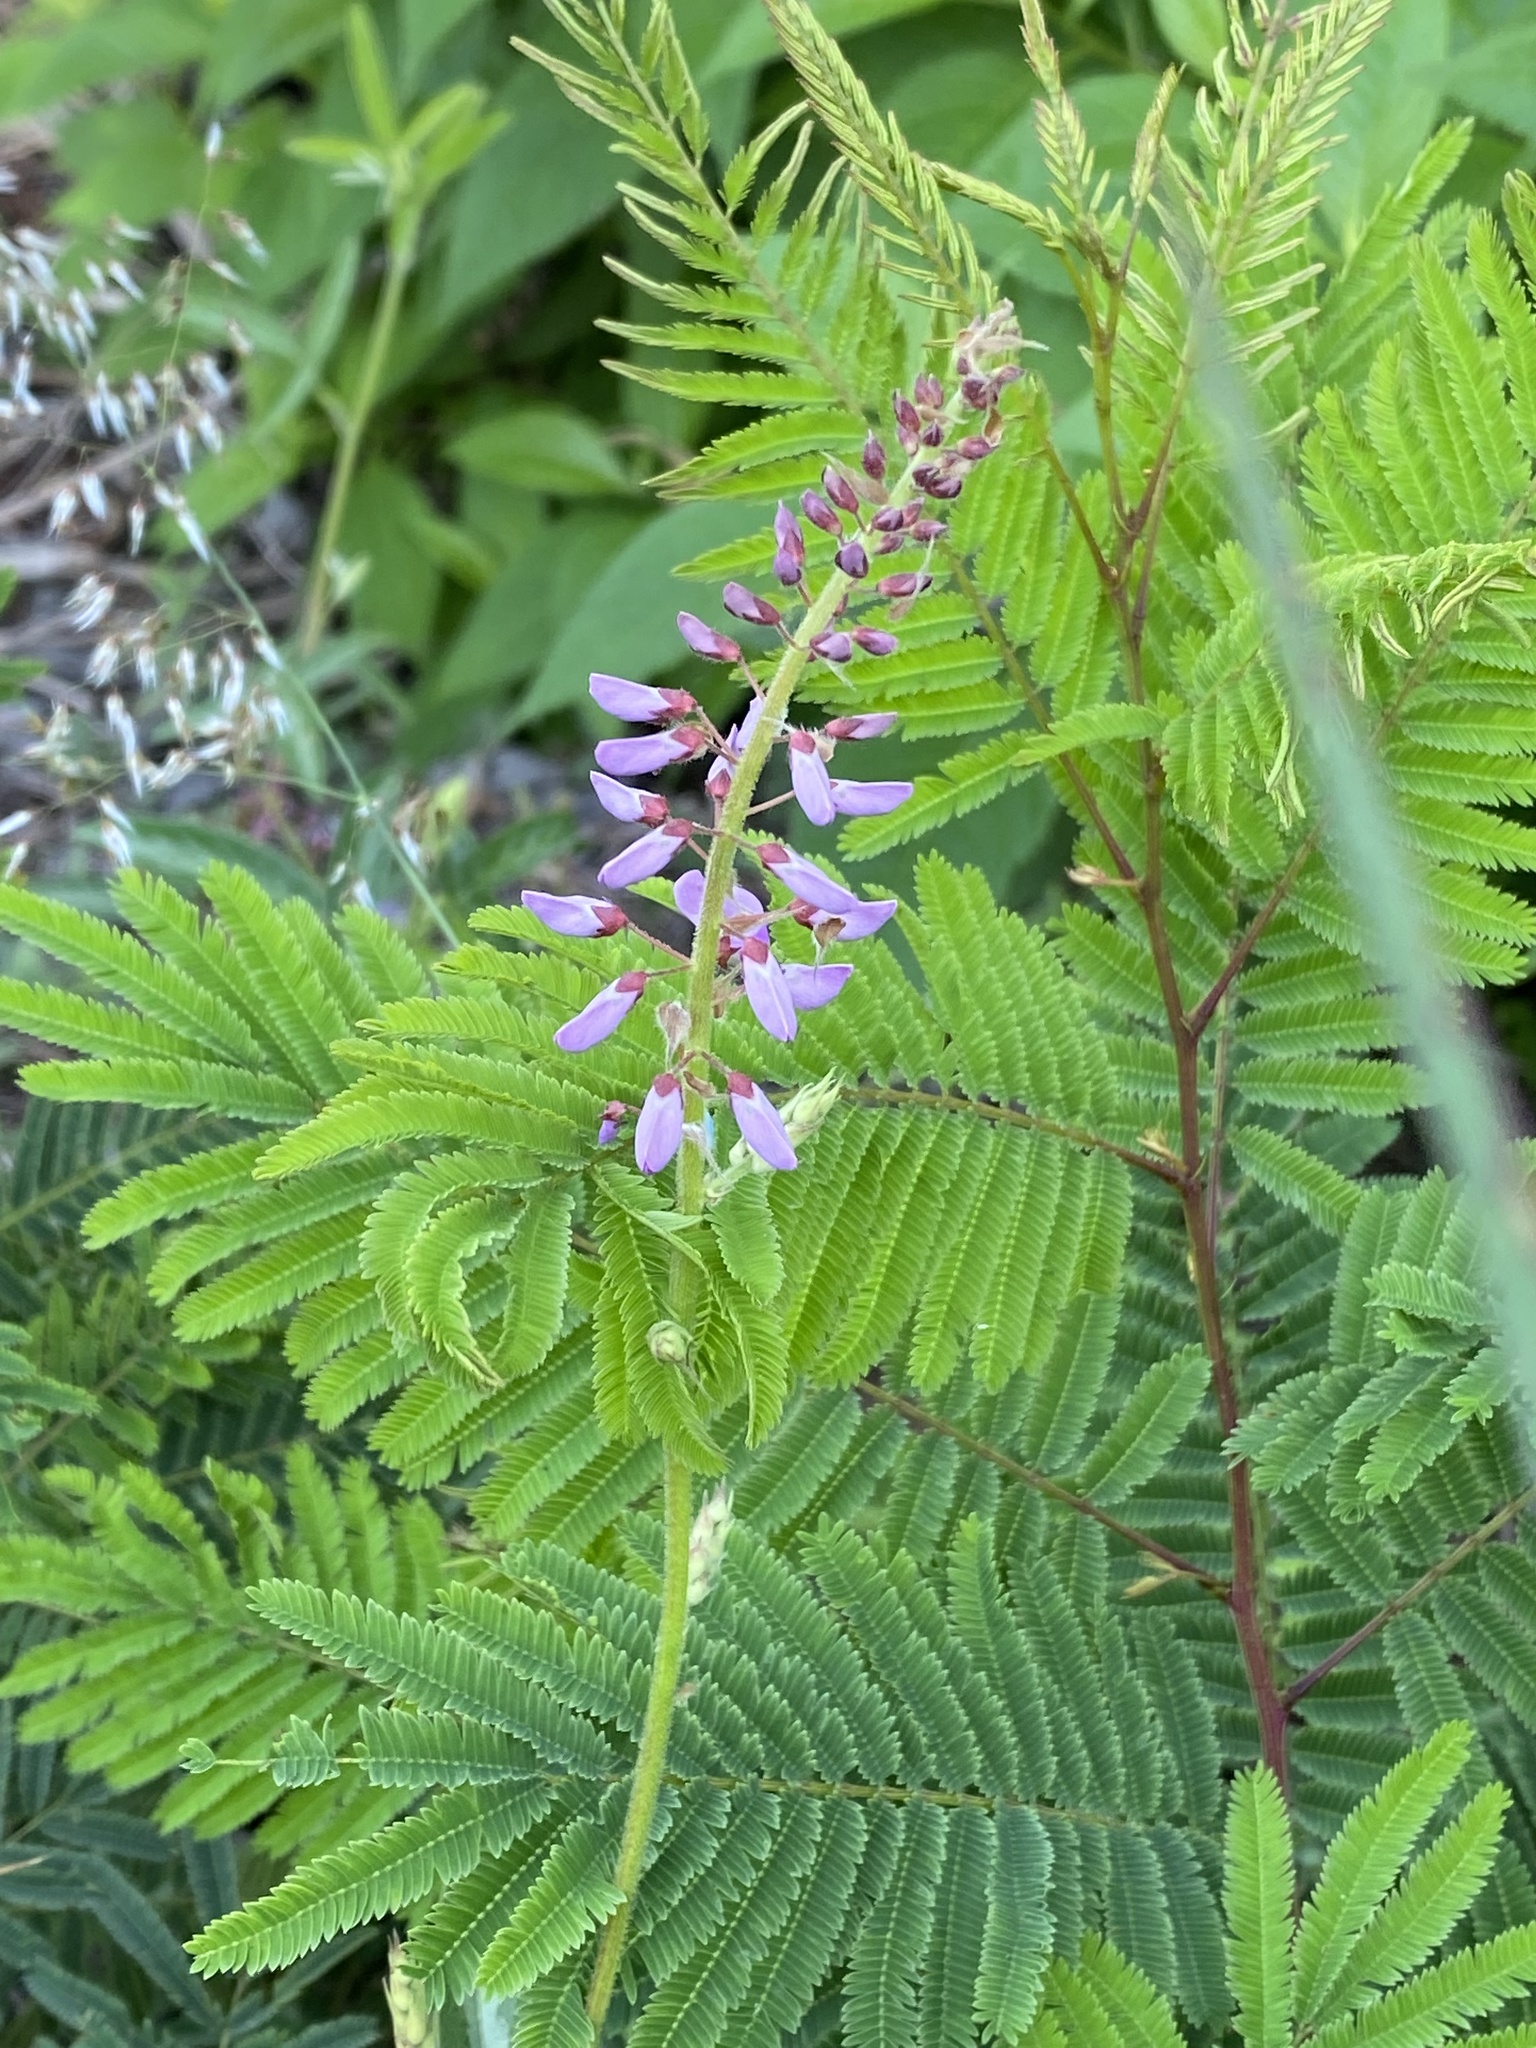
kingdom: Plantae
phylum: Tracheophyta
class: Magnoliopsida
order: Fabales
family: Fabaceae
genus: Desmodium
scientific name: Desmodium
